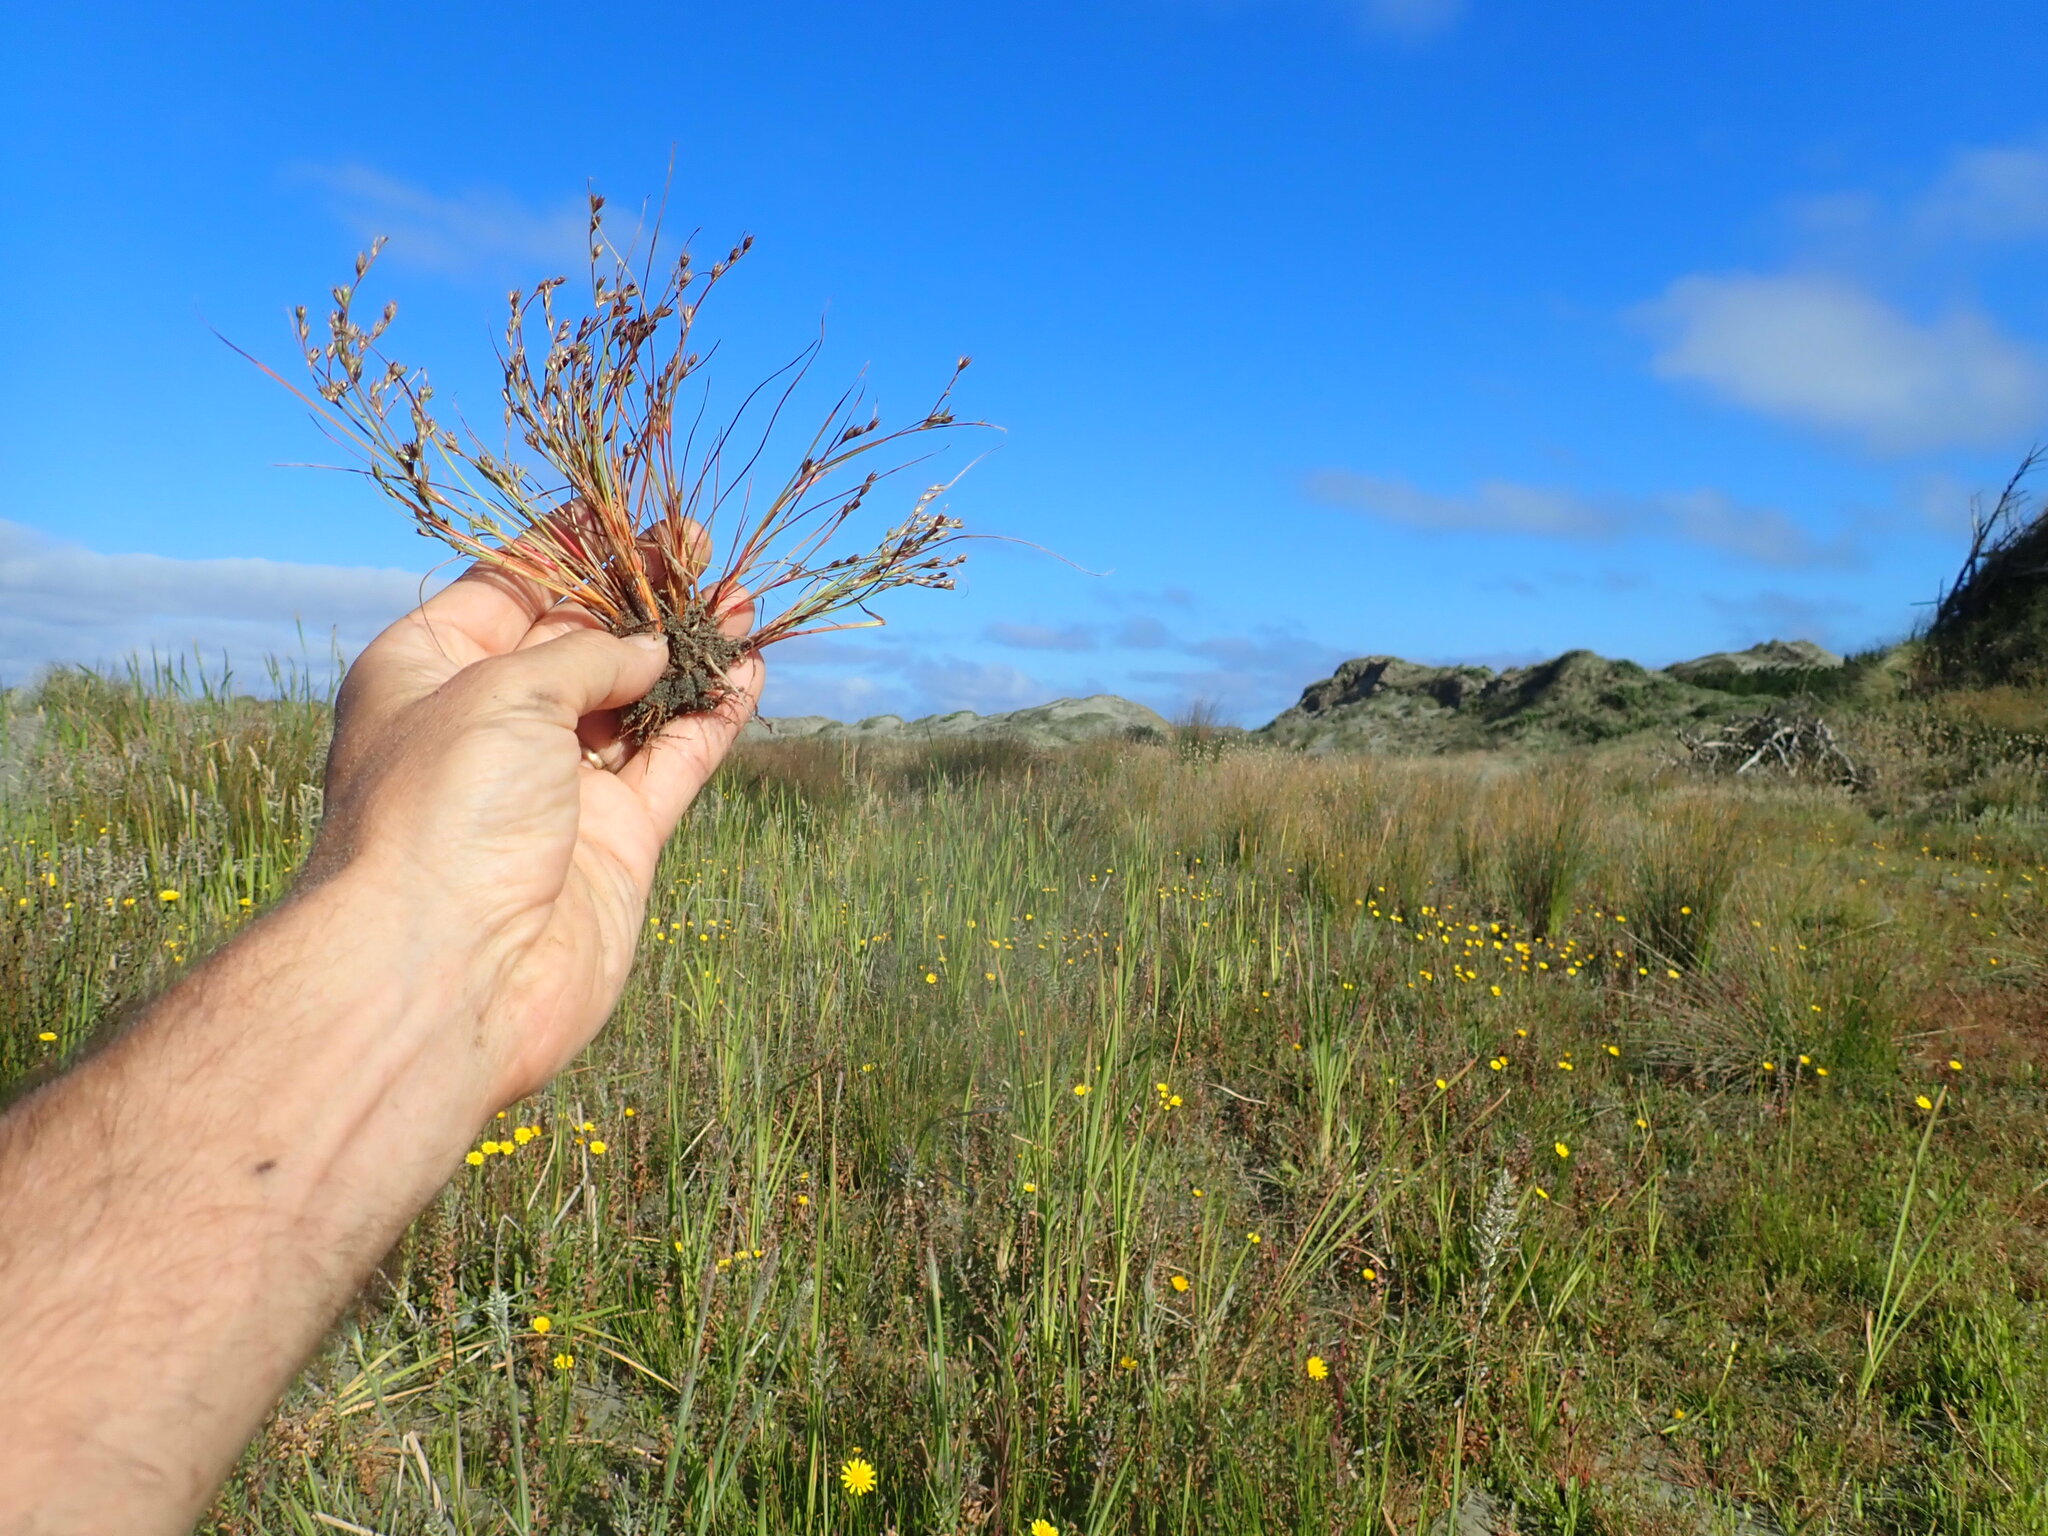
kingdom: Plantae
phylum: Tracheophyta
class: Liliopsida
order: Poales
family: Juncaceae
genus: Juncus
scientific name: Juncus bufonius
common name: Toad rush
